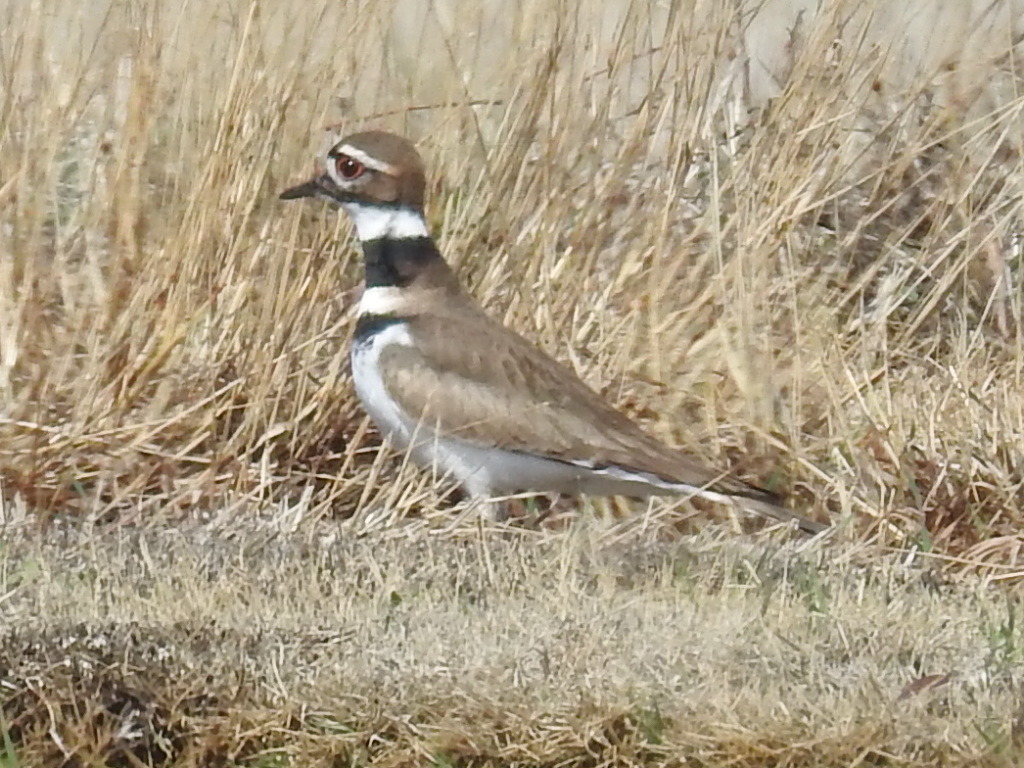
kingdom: Animalia
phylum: Chordata
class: Aves
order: Charadriiformes
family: Charadriidae
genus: Charadrius
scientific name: Charadrius vociferus
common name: Killdeer
